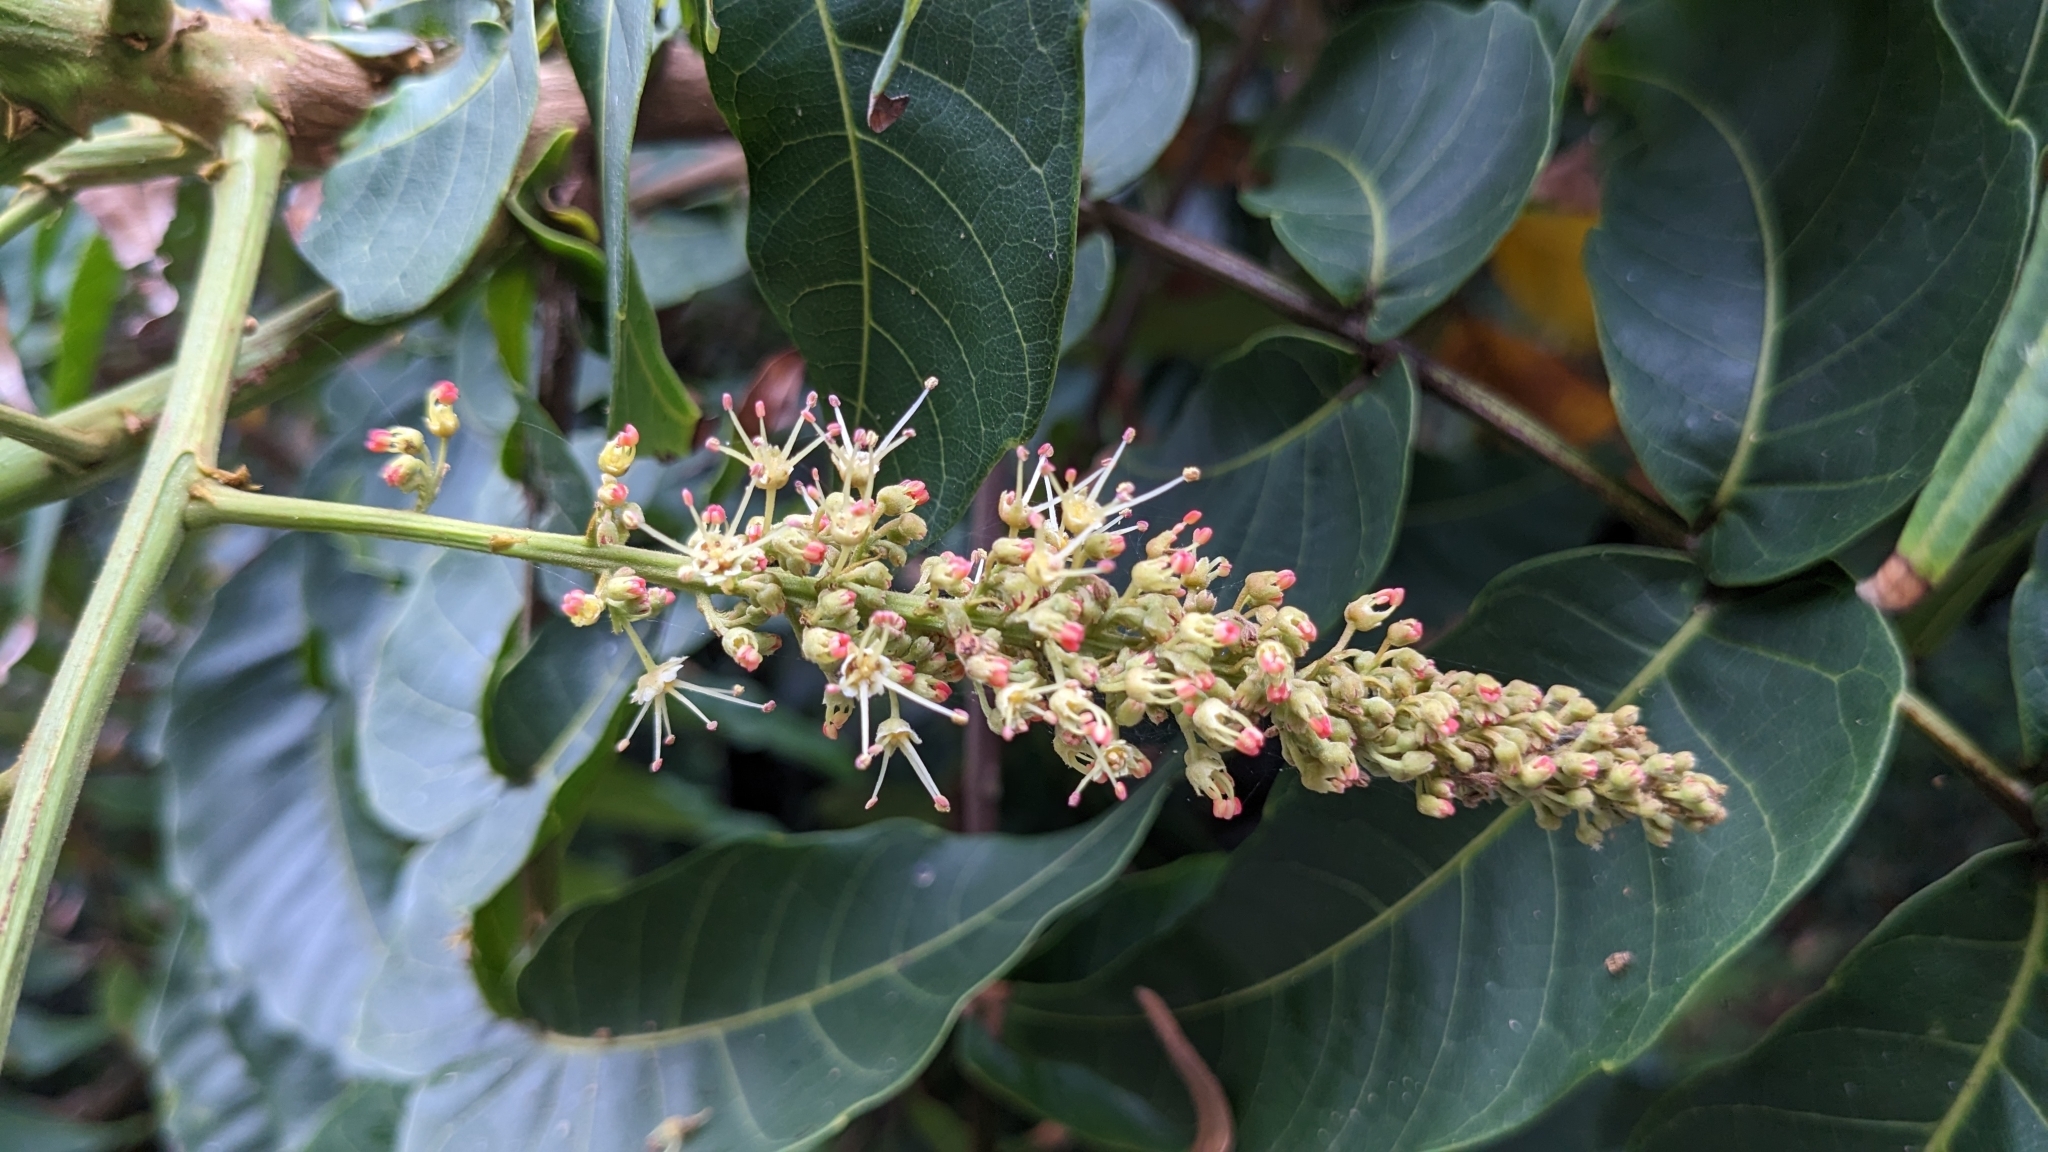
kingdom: Plantae
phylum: Tracheophyta
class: Magnoliopsida
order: Sapindales
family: Sapindaceae
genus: Pometia
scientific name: Pometia pinnata
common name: Oceanic lychee
